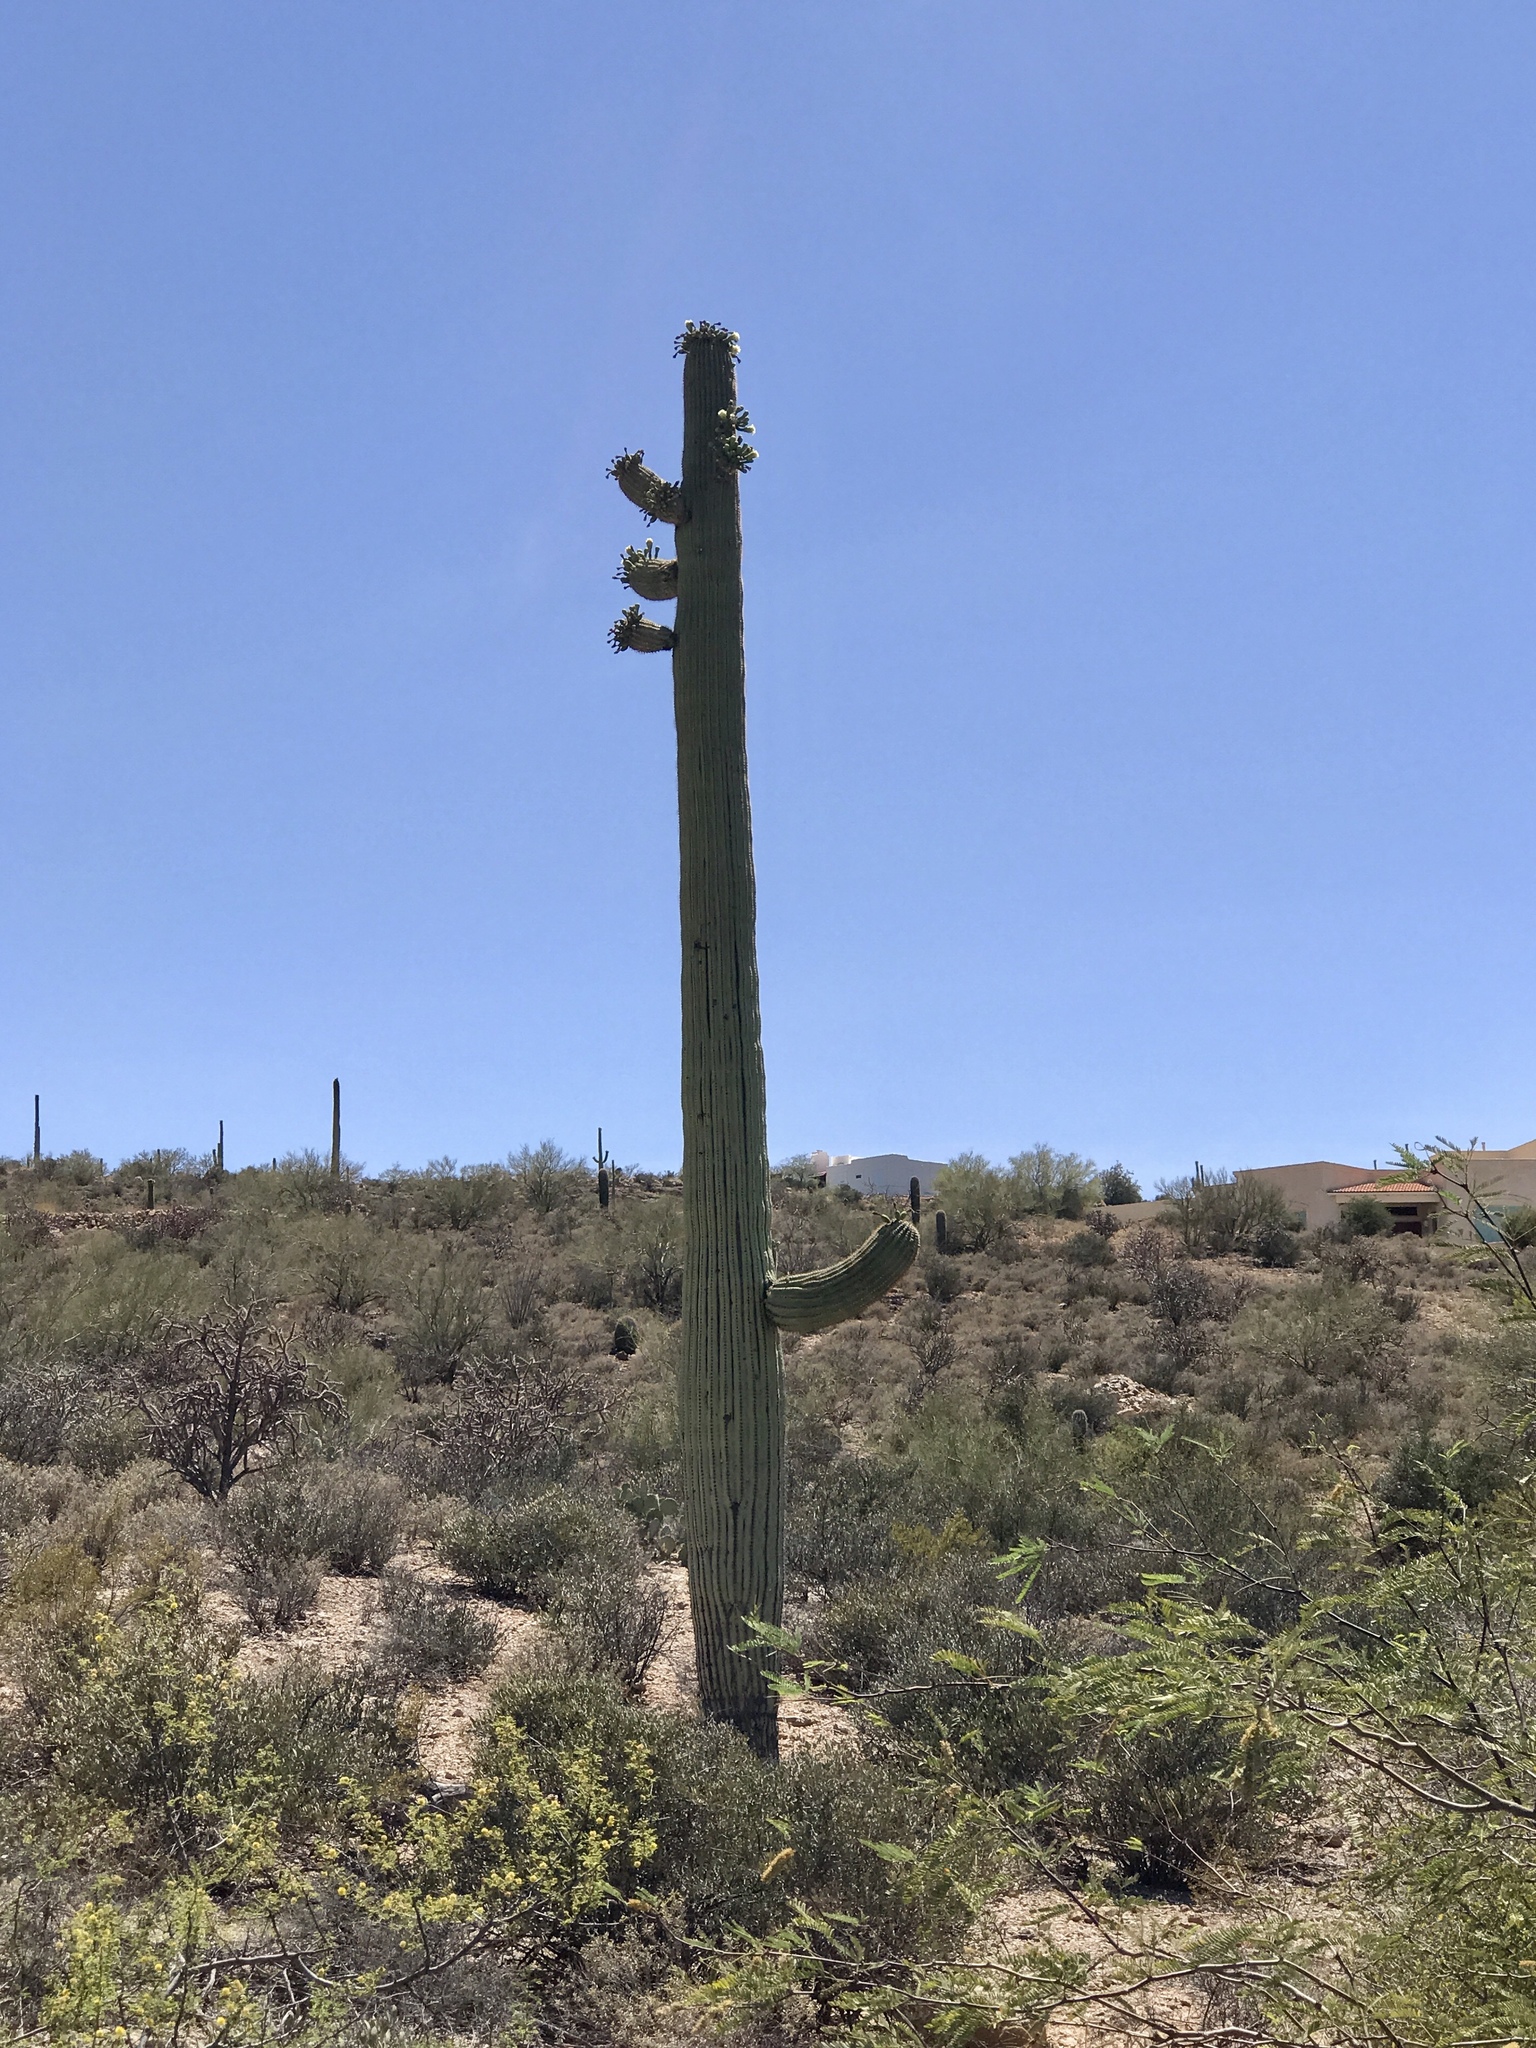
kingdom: Plantae
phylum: Tracheophyta
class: Magnoliopsida
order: Caryophyllales
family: Cactaceae
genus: Carnegiea
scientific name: Carnegiea gigantea
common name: Saguaro
